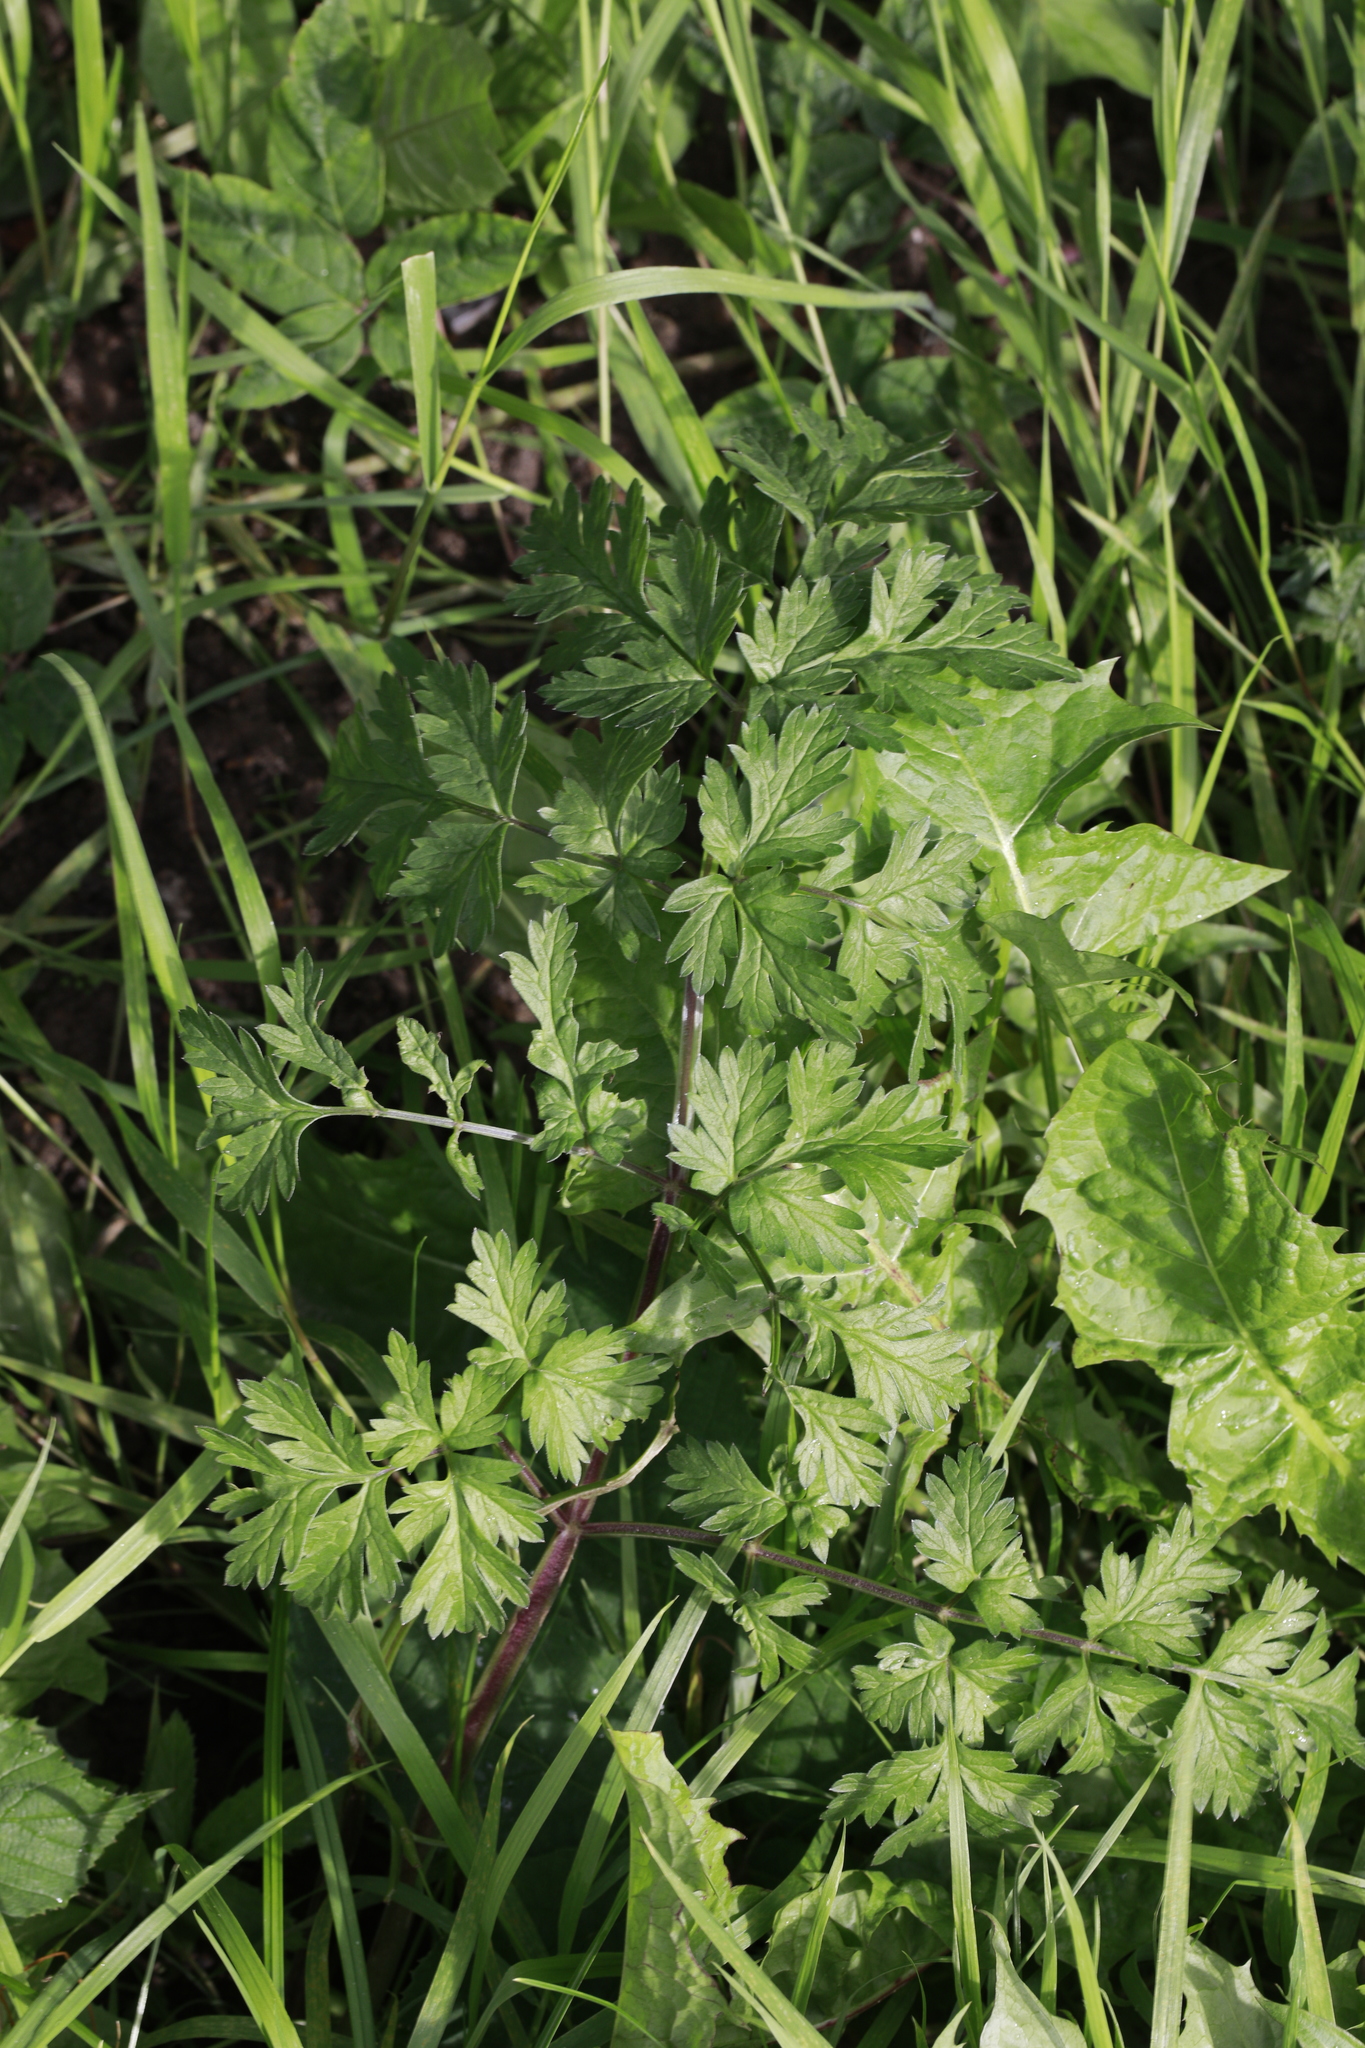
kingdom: Plantae
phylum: Tracheophyta
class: Magnoliopsida
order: Apiales
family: Apiaceae
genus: Anthriscus
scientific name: Anthriscus sylvestris
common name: Cow parsley
